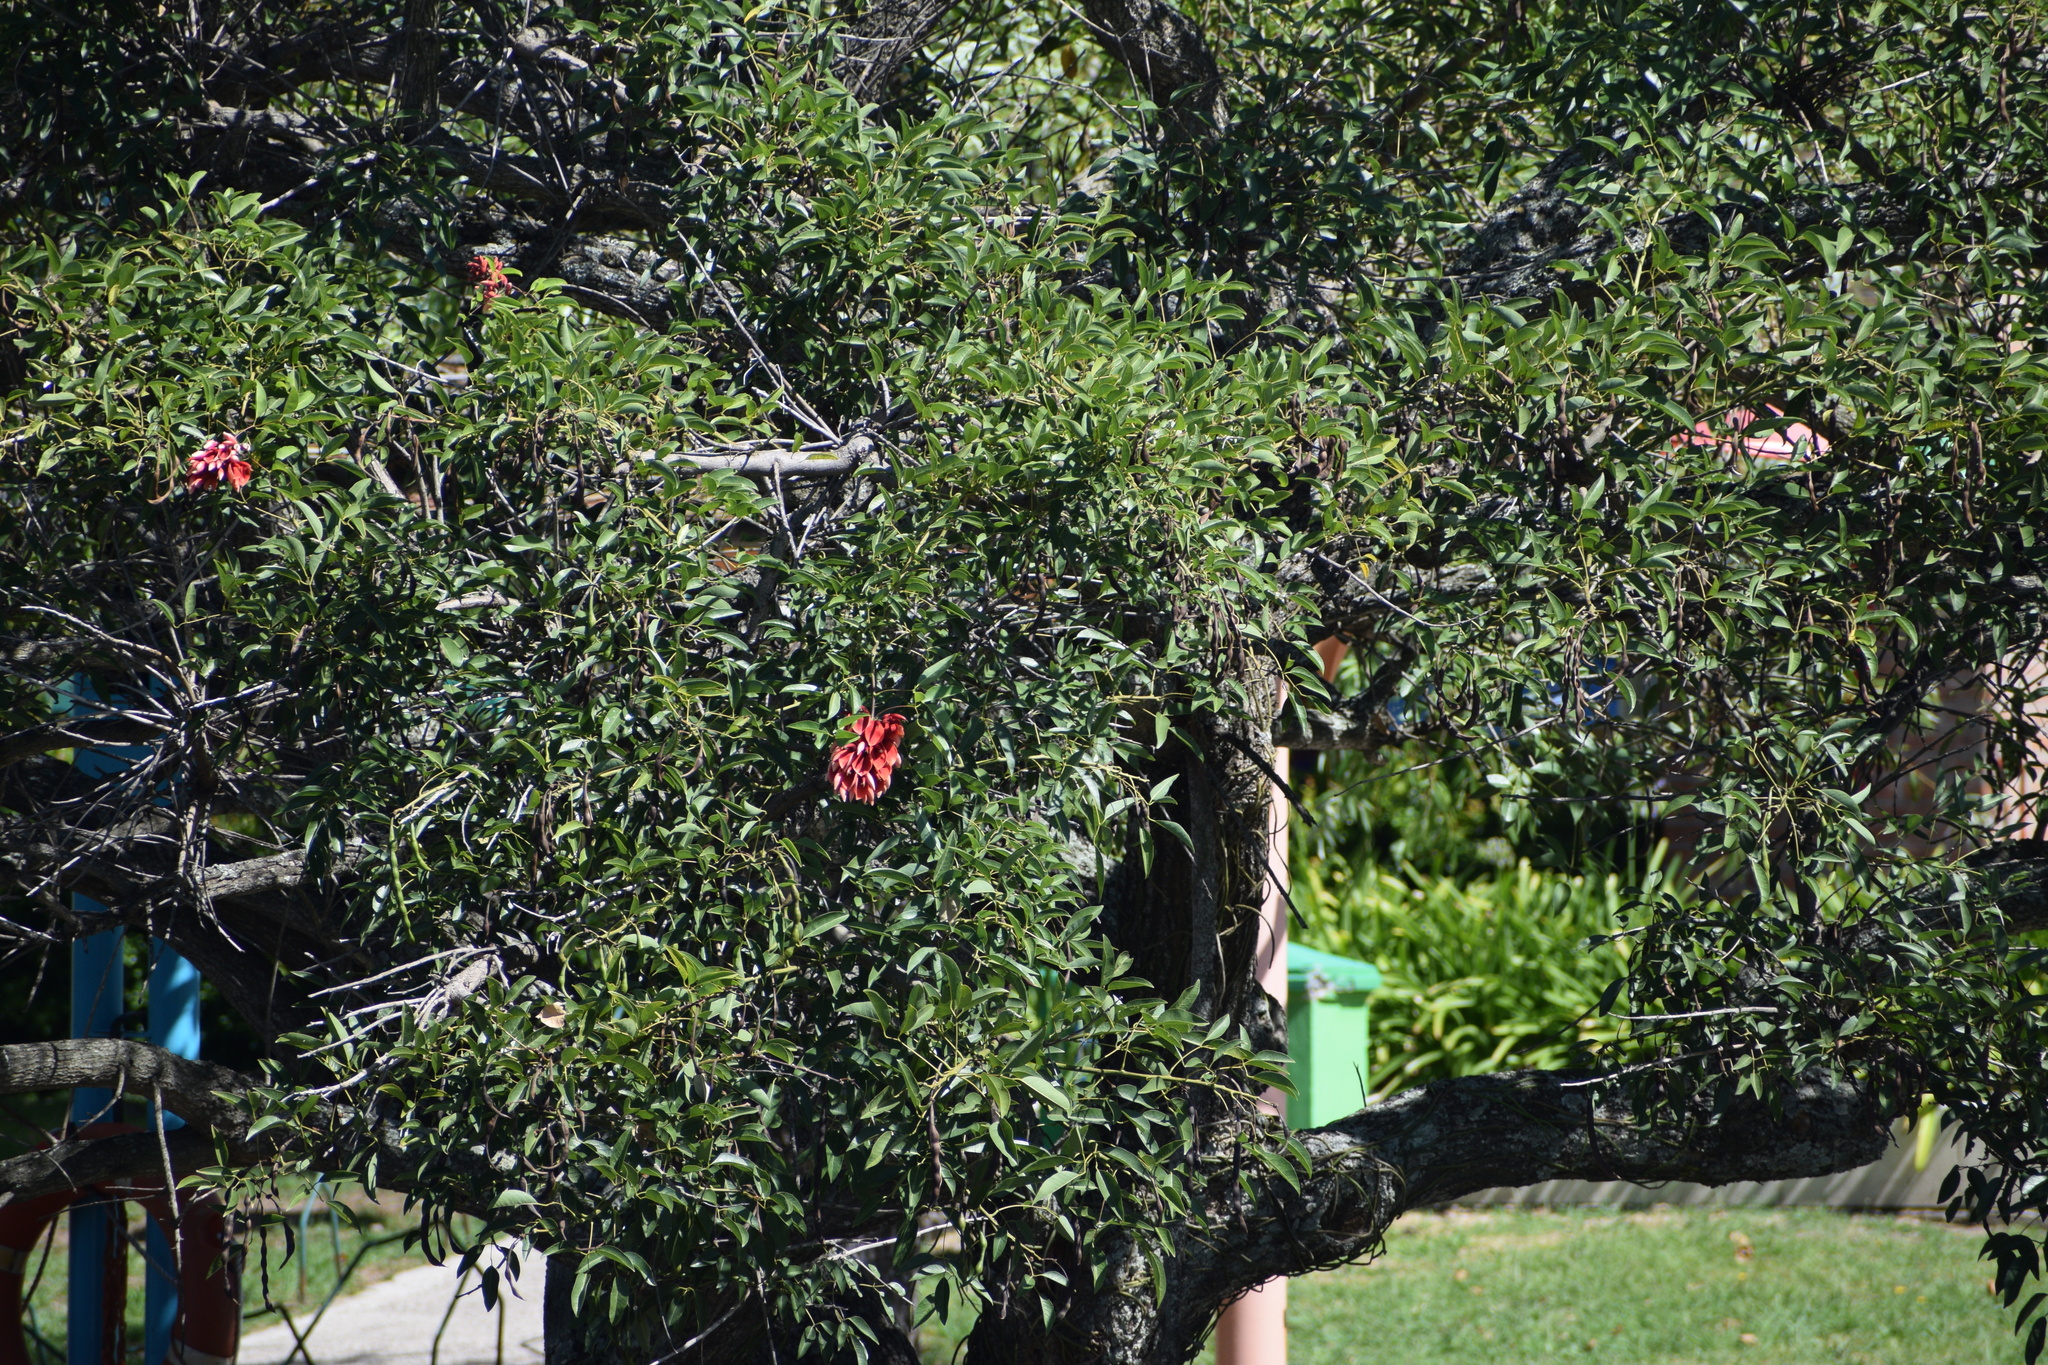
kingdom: Plantae
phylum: Tracheophyta
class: Magnoliopsida
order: Fabales
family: Fabaceae
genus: Erythrina
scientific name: Erythrina crista-galli
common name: Cockspur coral tree
